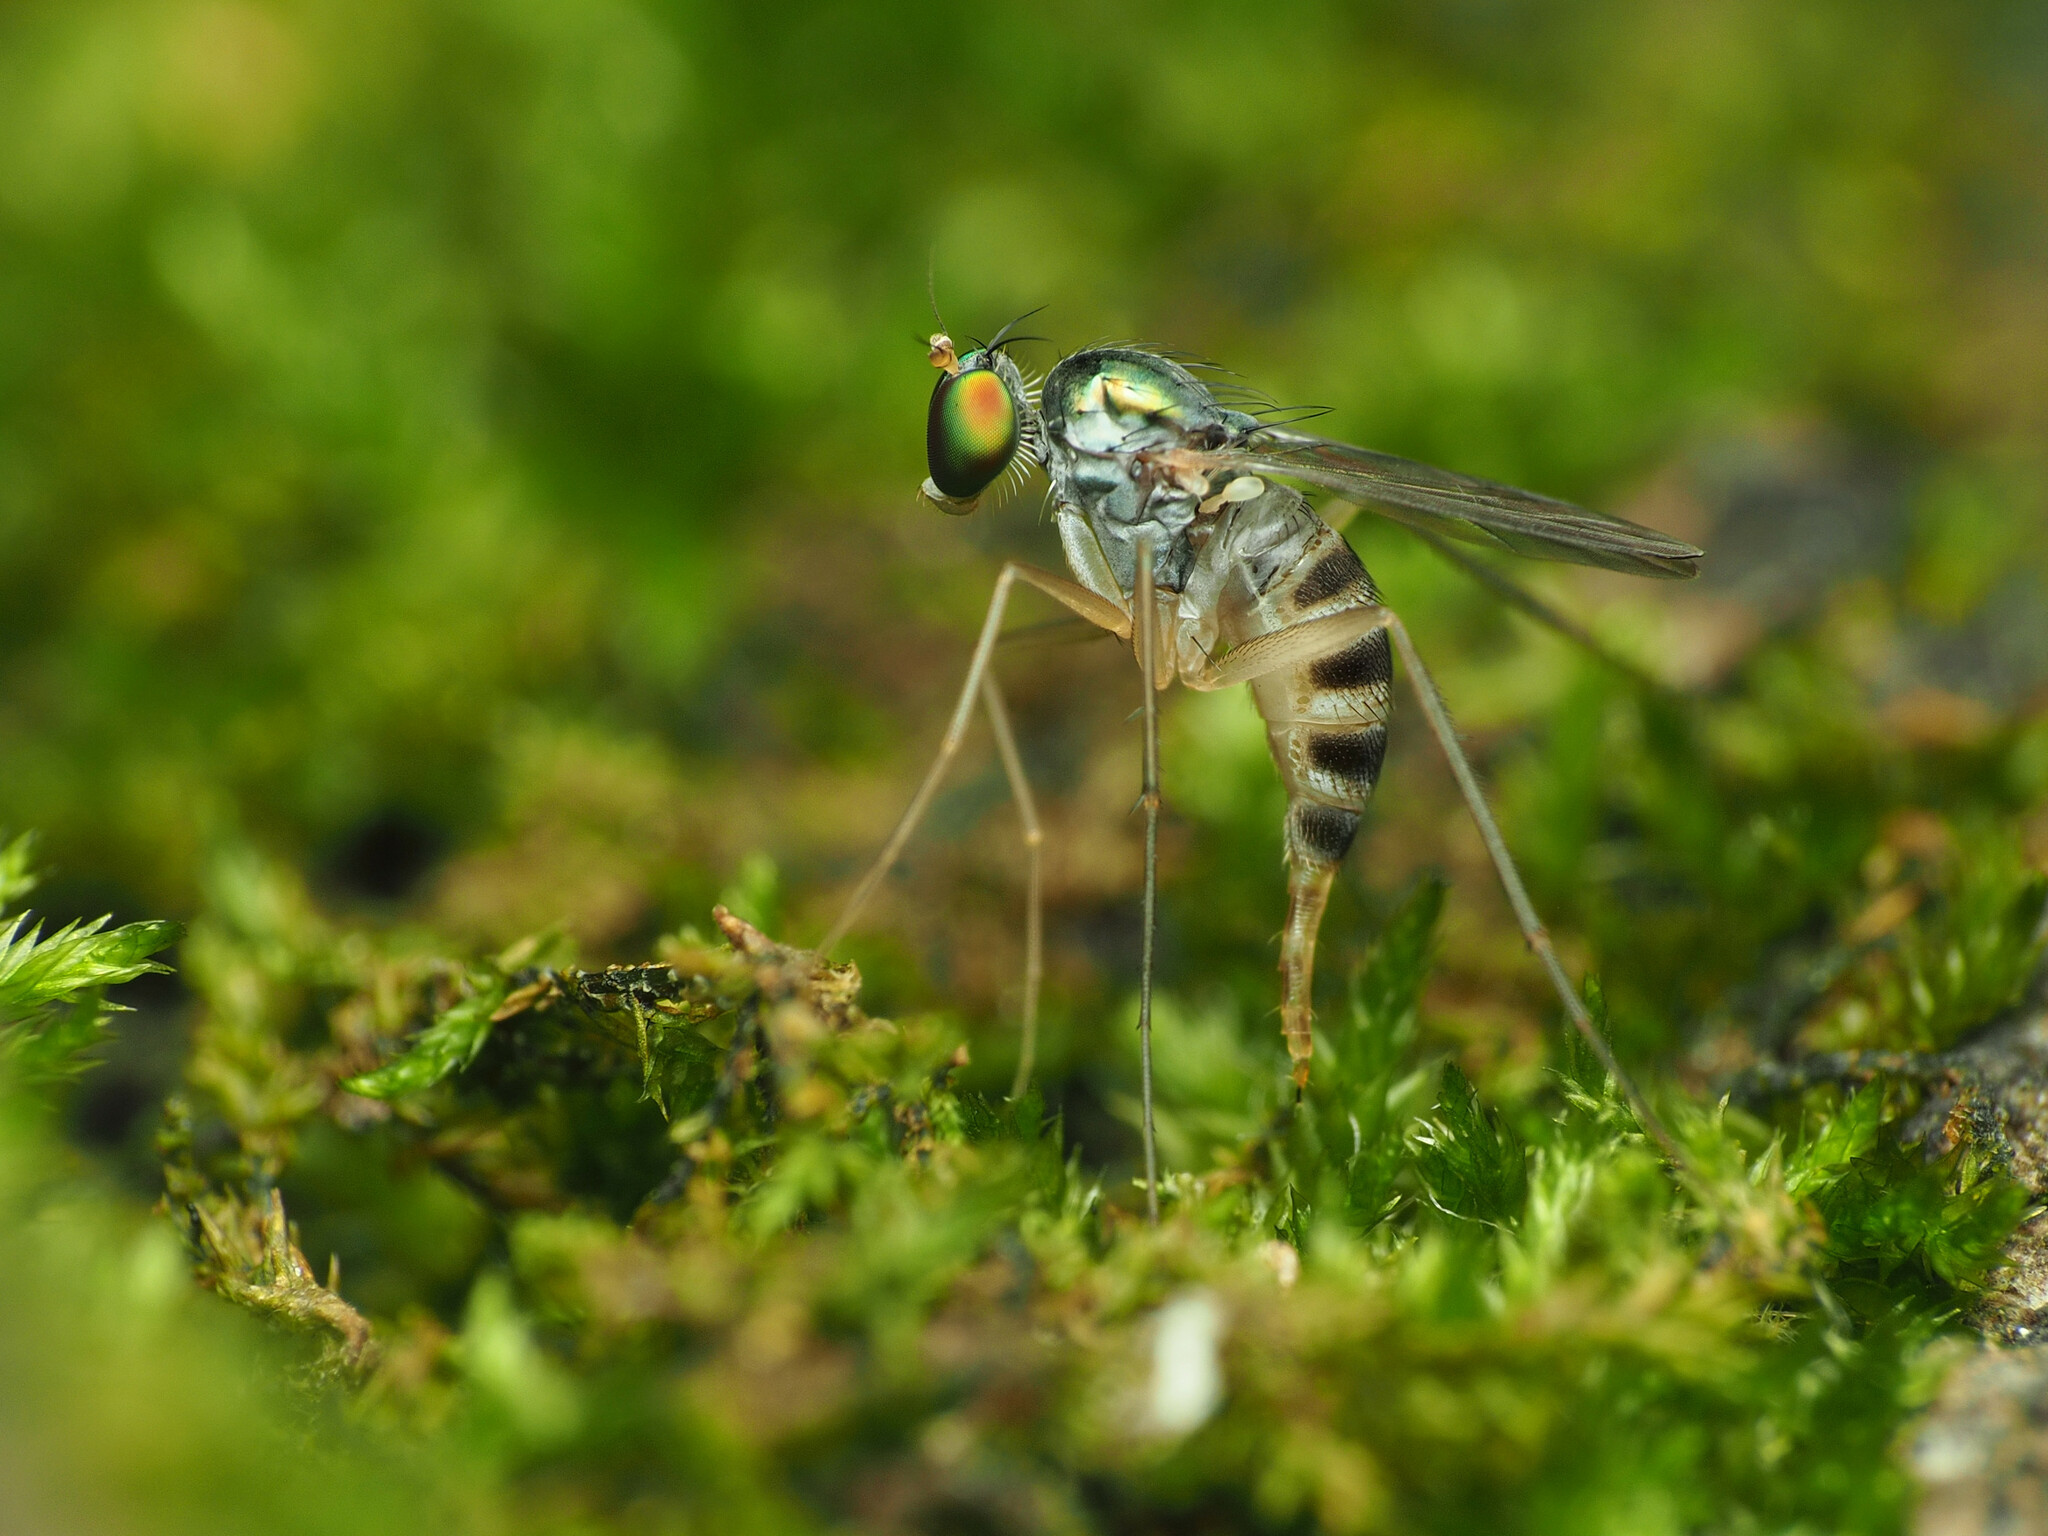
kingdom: Animalia
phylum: Arthropoda
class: Insecta
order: Diptera
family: Dolichopodidae
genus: Neurigona
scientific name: Neurigona deformis
